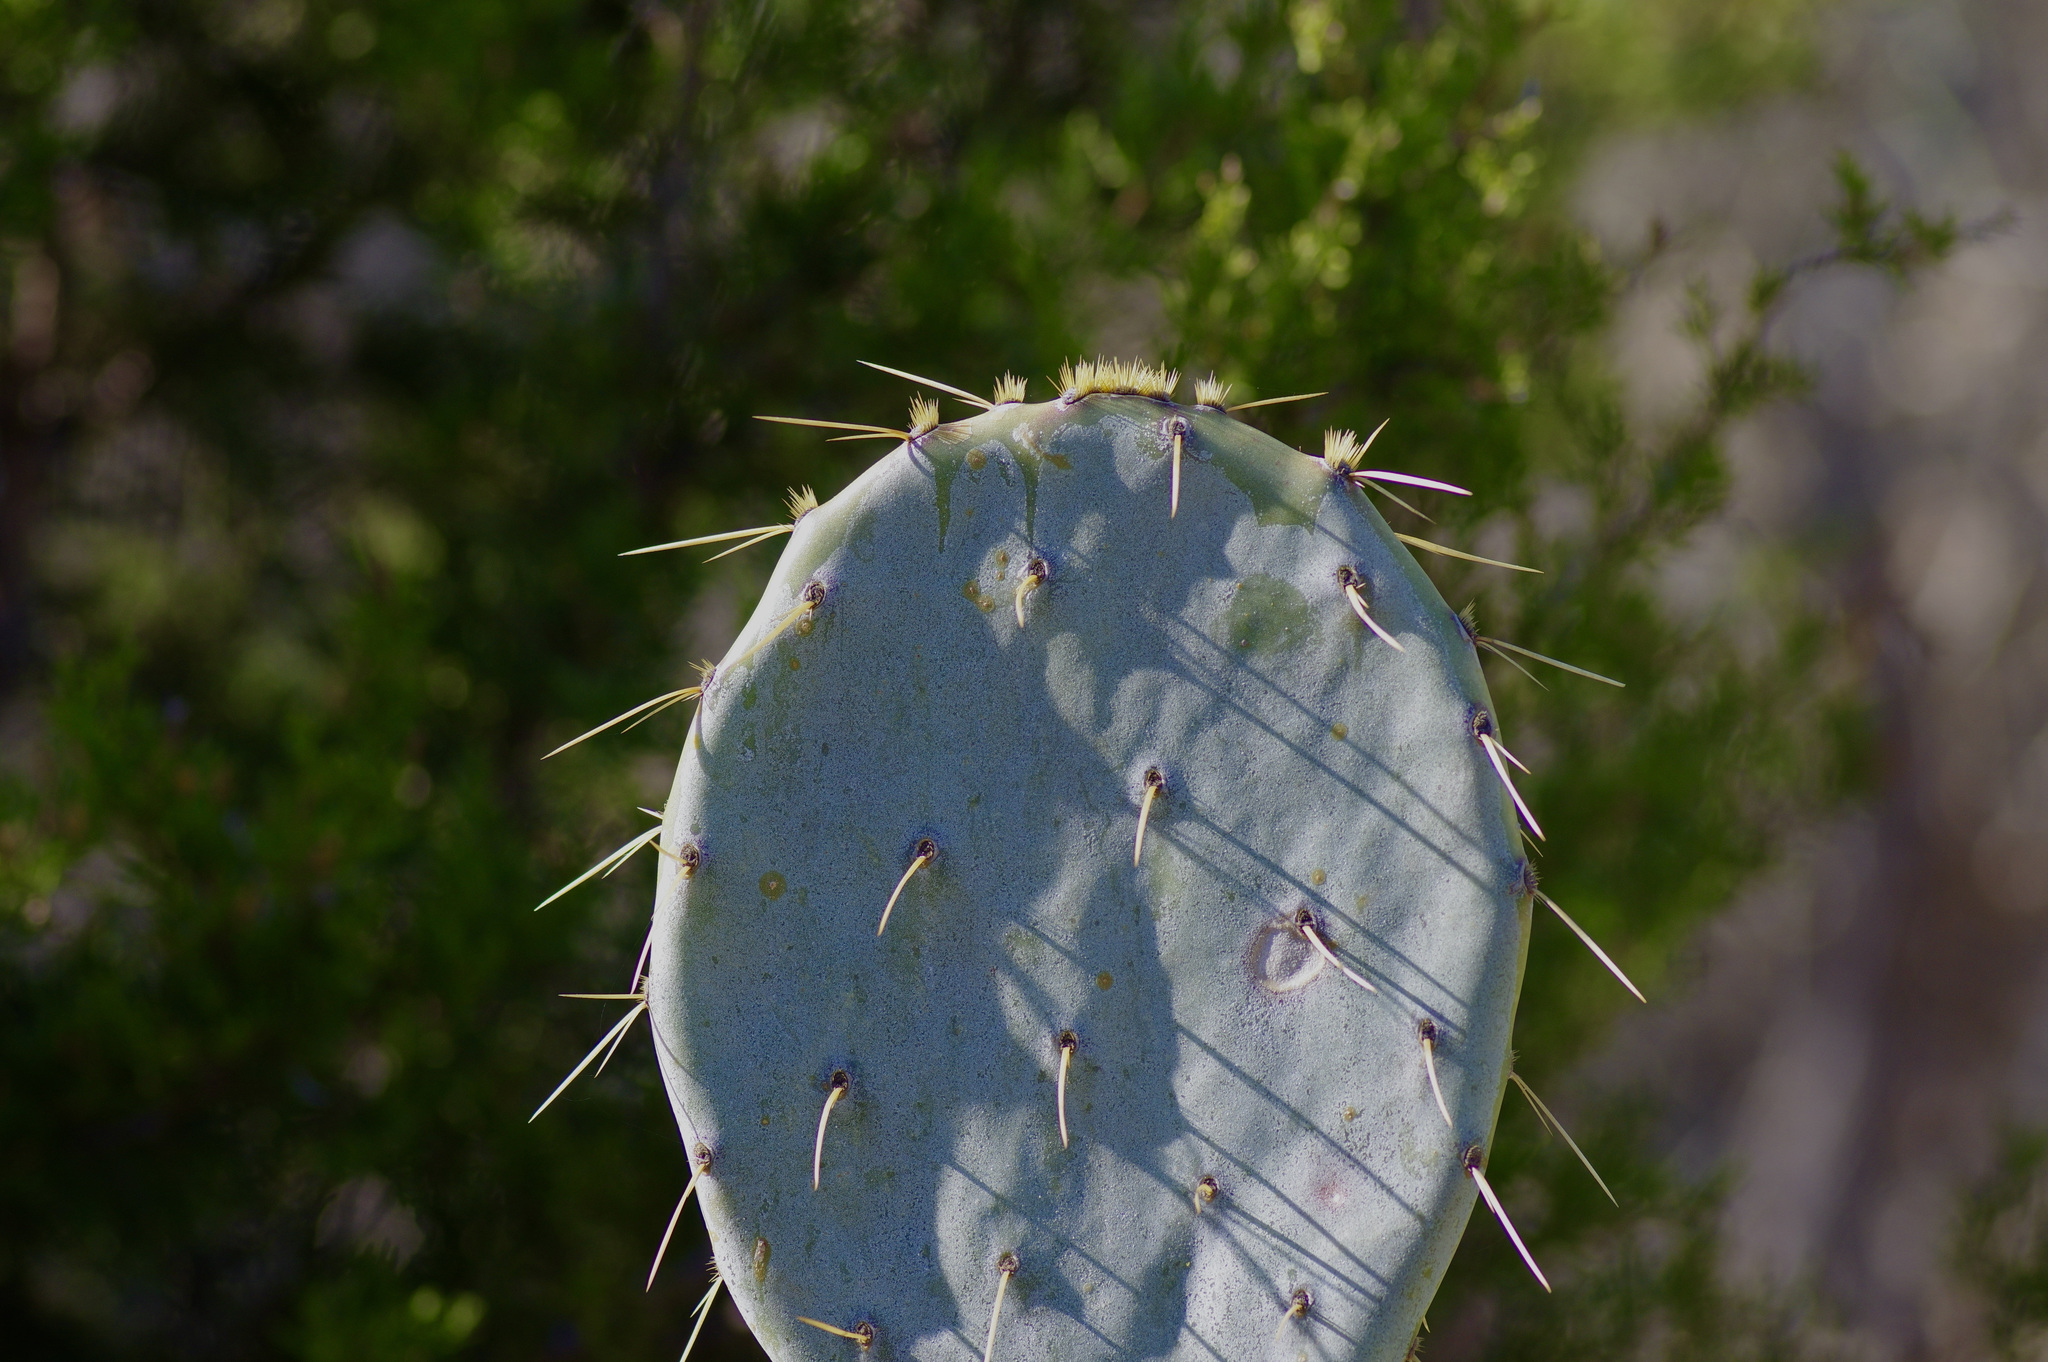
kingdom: Plantae
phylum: Tracheophyta
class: Magnoliopsida
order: Caryophyllales
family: Cactaceae
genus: Opuntia
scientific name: Opuntia orbiculata
